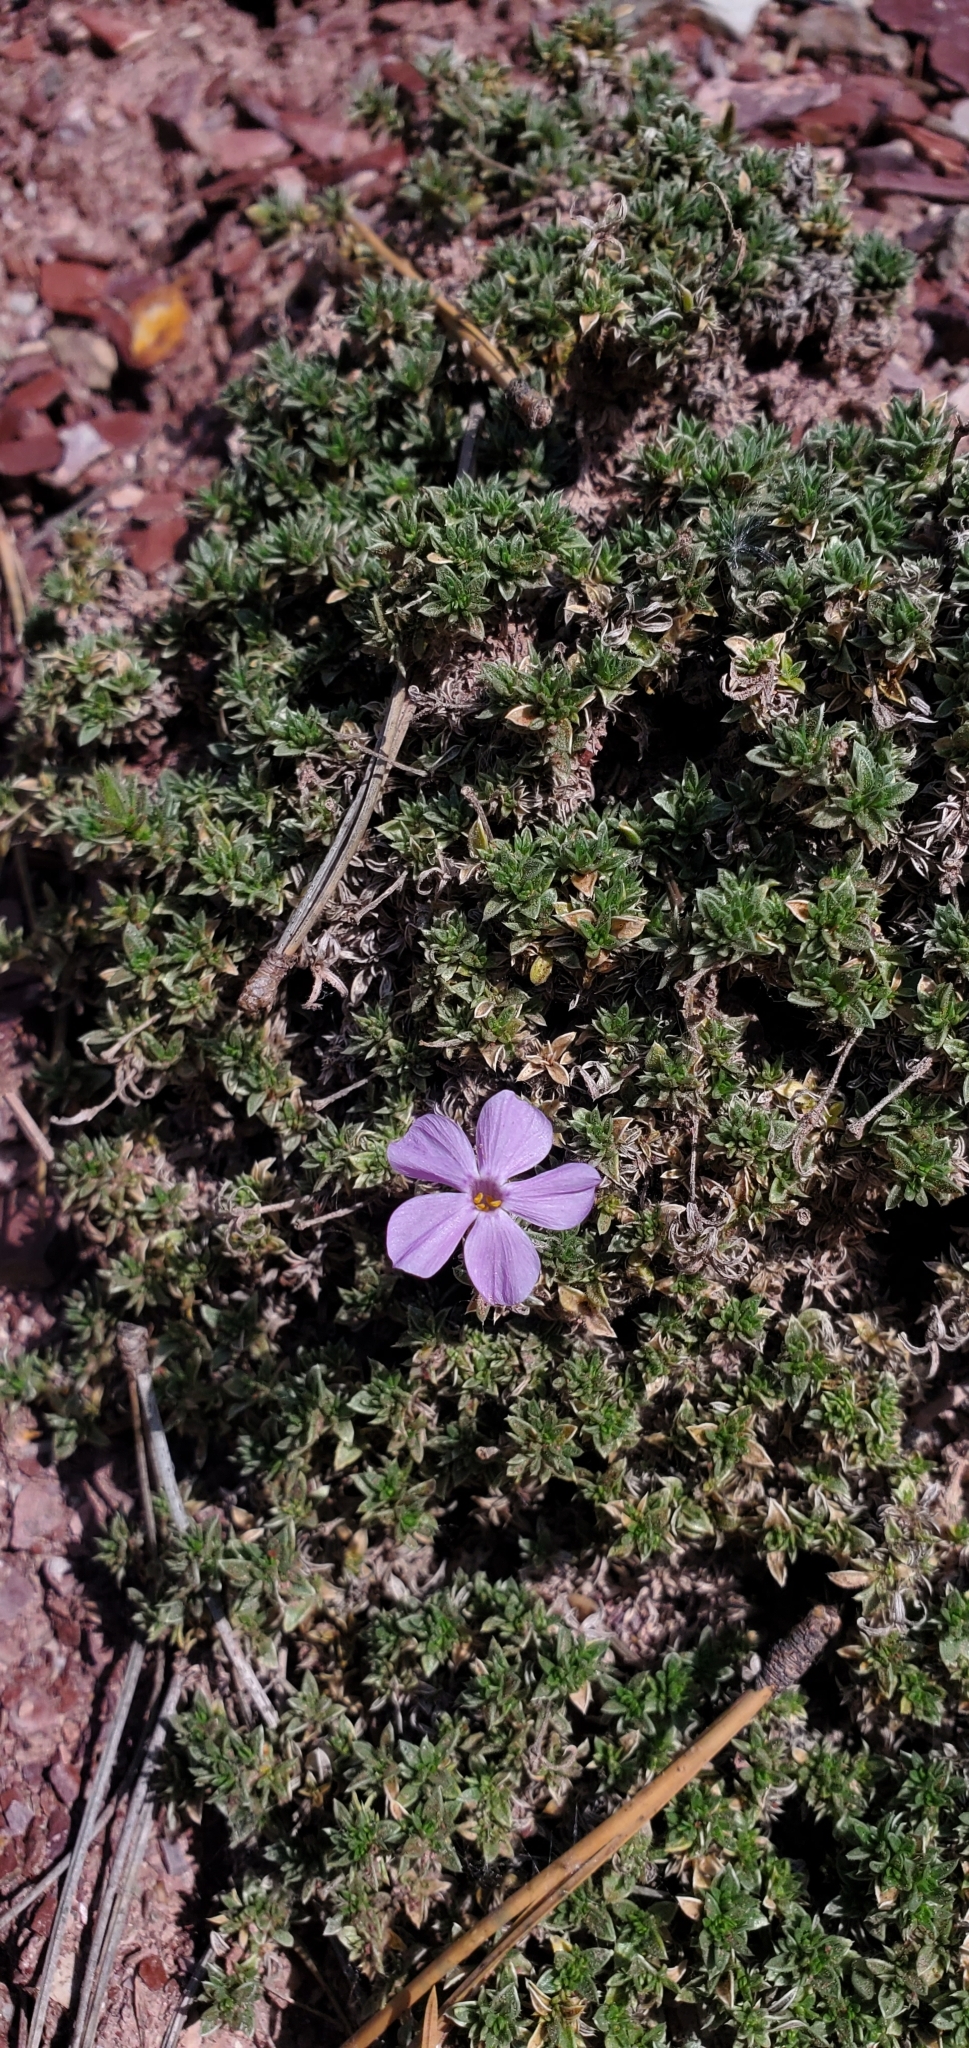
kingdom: Plantae
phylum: Tracheophyta
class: Magnoliopsida
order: Ericales
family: Polemoniaceae
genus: Phlox
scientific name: Phlox albomarginata
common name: White-margin phlox
